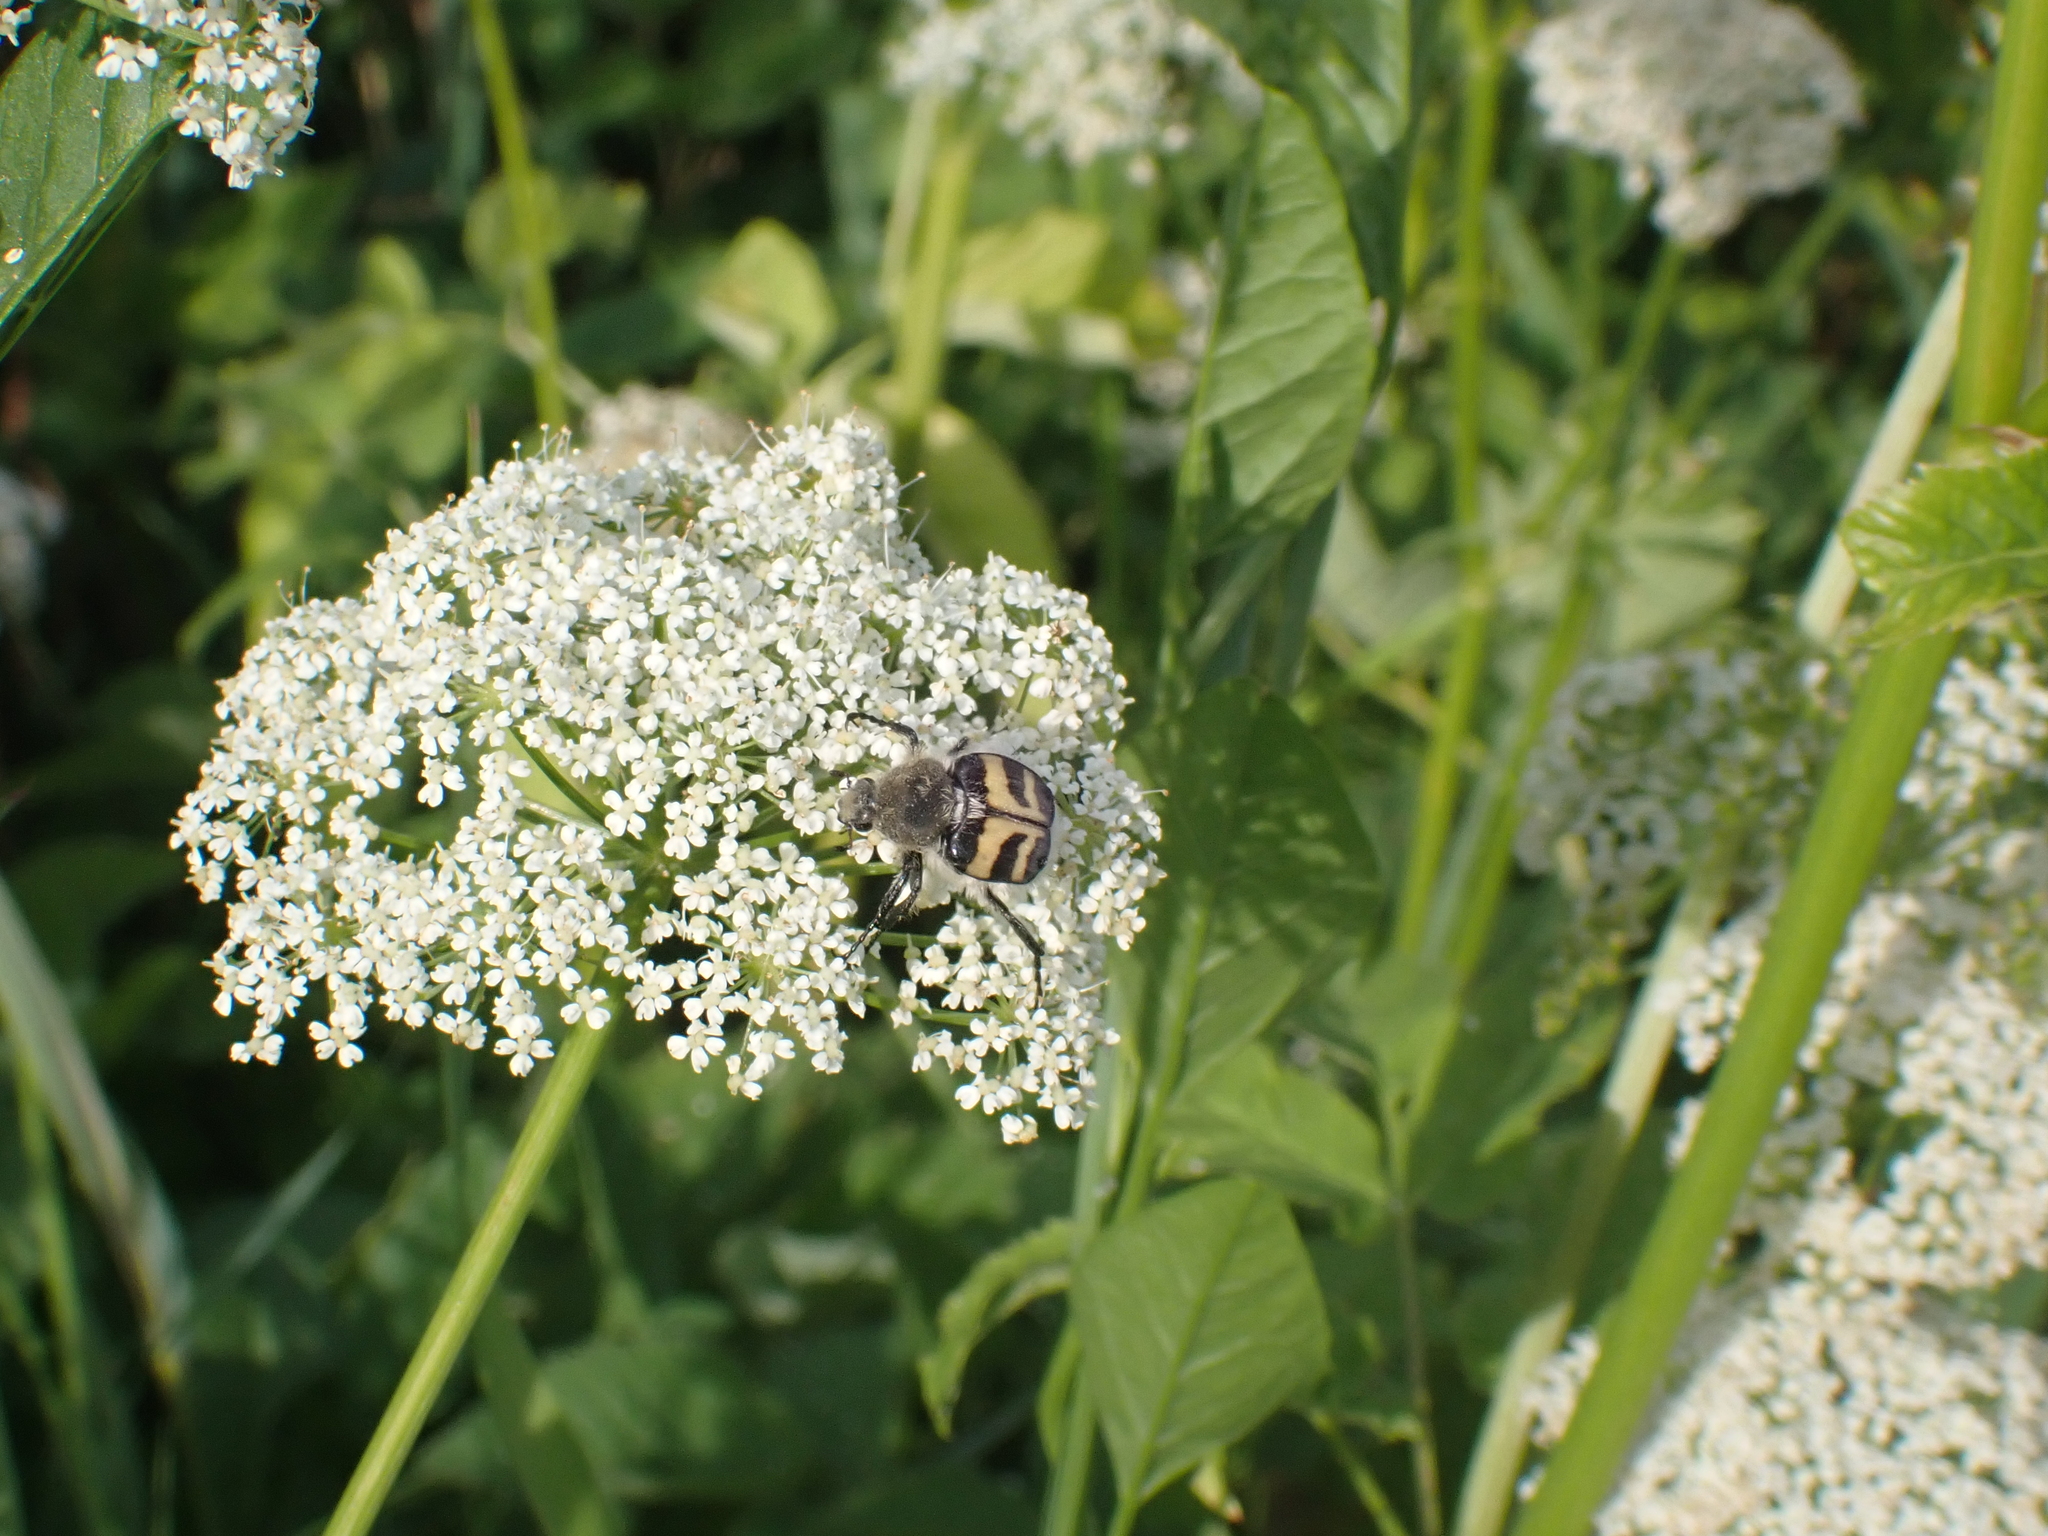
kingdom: Animalia
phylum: Arthropoda
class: Insecta
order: Coleoptera
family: Scarabaeidae
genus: Trichius
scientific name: Trichius fasciatus
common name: Bee beetle
